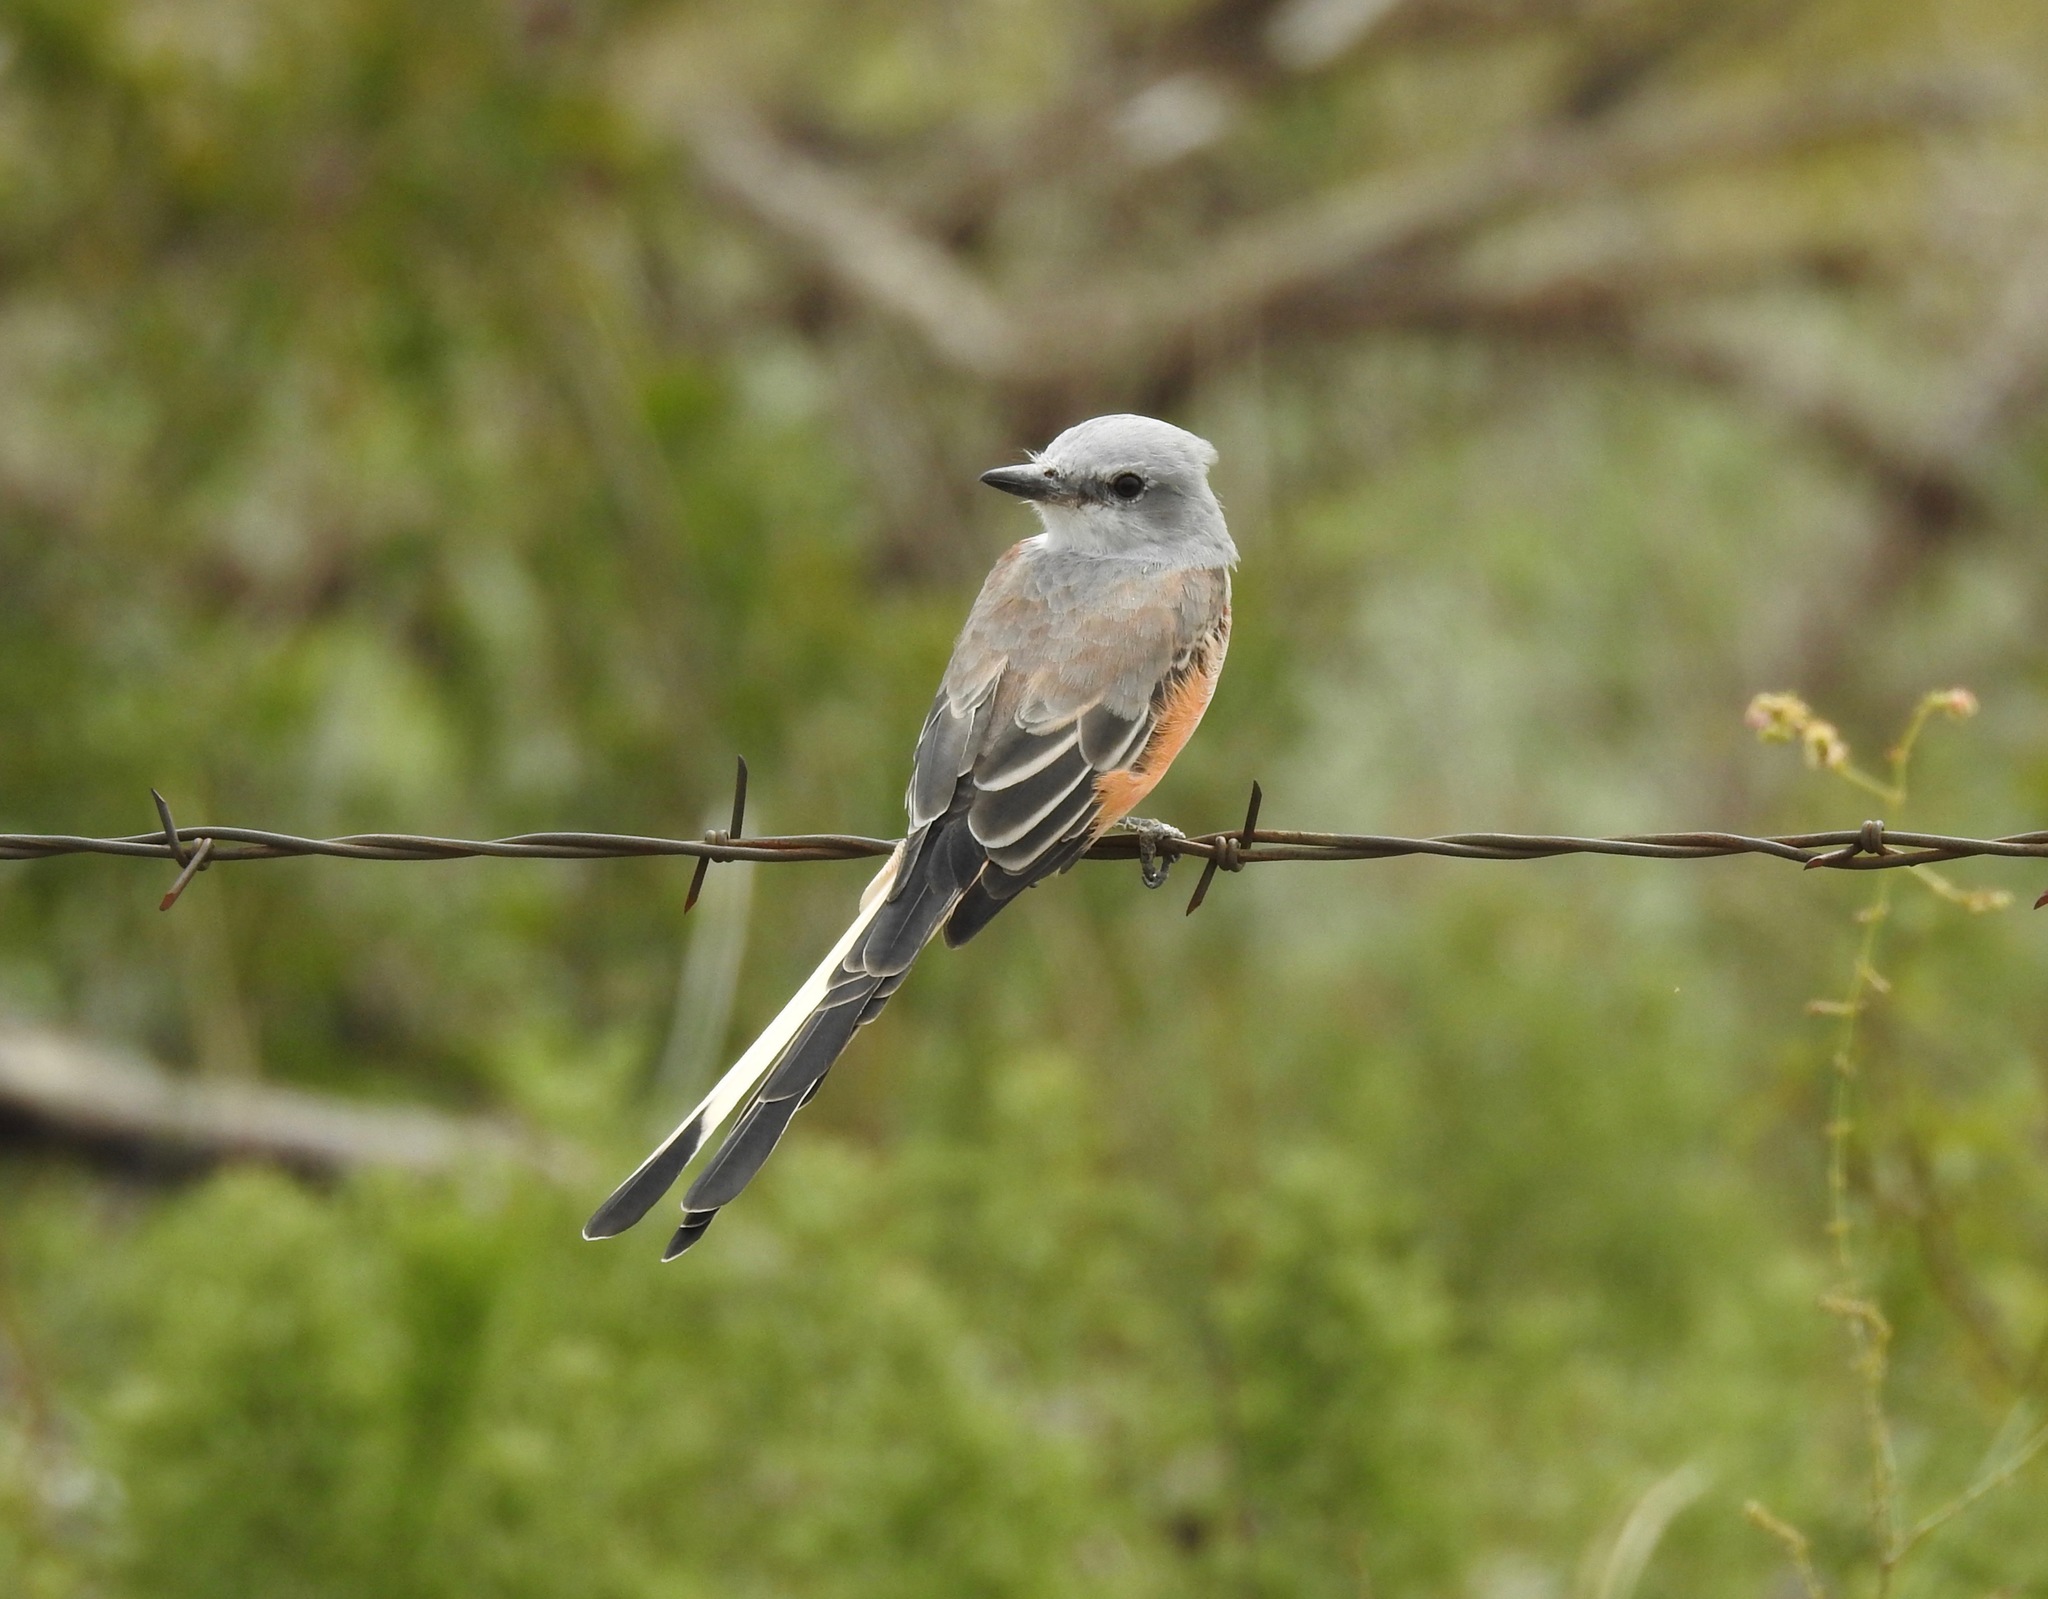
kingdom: Animalia
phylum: Chordata
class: Aves
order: Passeriformes
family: Tyrannidae
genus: Tyrannus
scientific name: Tyrannus forficatus
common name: Scissor-tailed flycatcher
